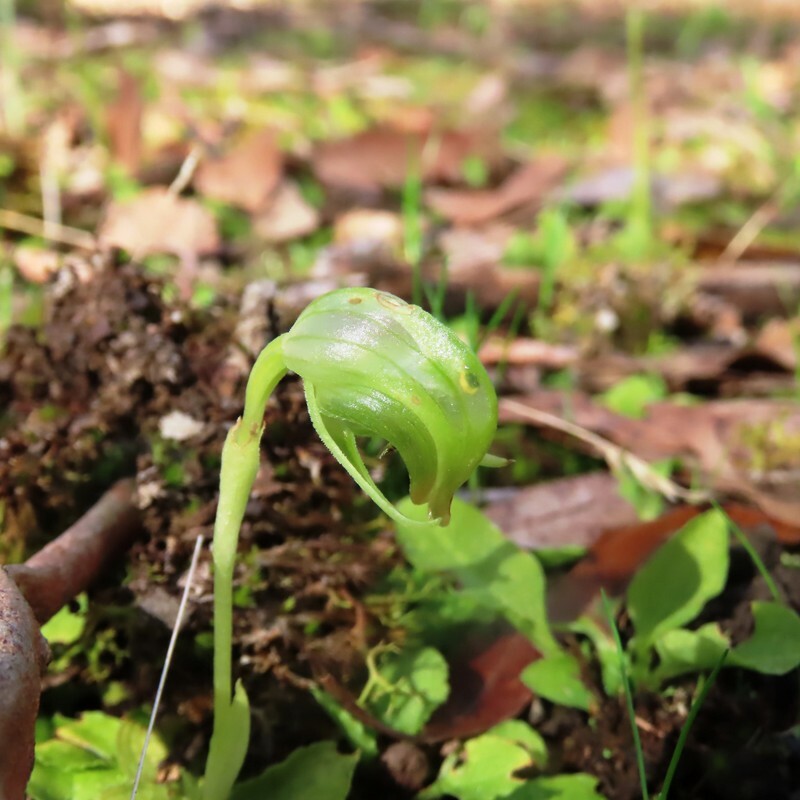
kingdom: Plantae
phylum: Tracheophyta
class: Liliopsida
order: Asparagales
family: Orchidaceae
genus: Pterostylis
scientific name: Pterostylis nutans
